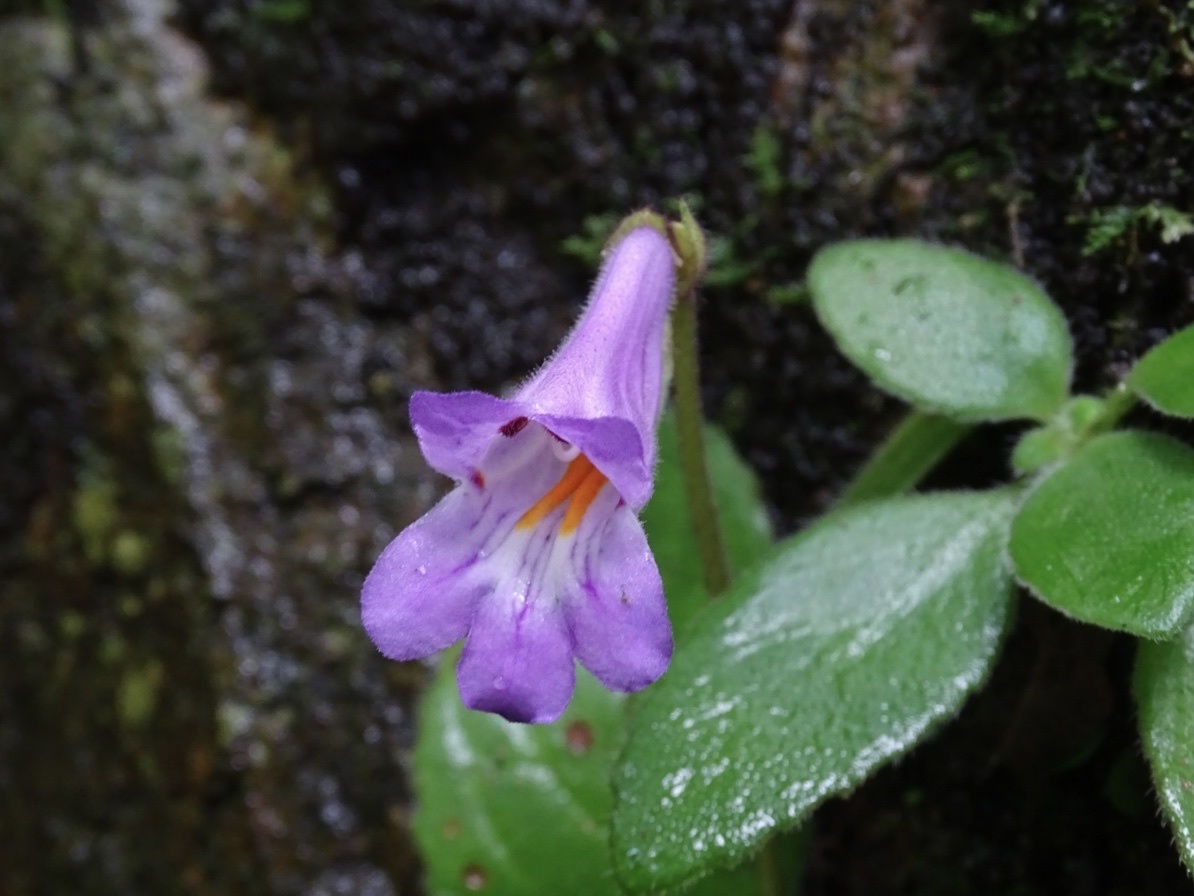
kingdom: Plantae
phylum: Tracheophyta
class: Magnoliopsida
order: Lamiales
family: Gesneriaceae
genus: Primulina
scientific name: Primulina dryas
